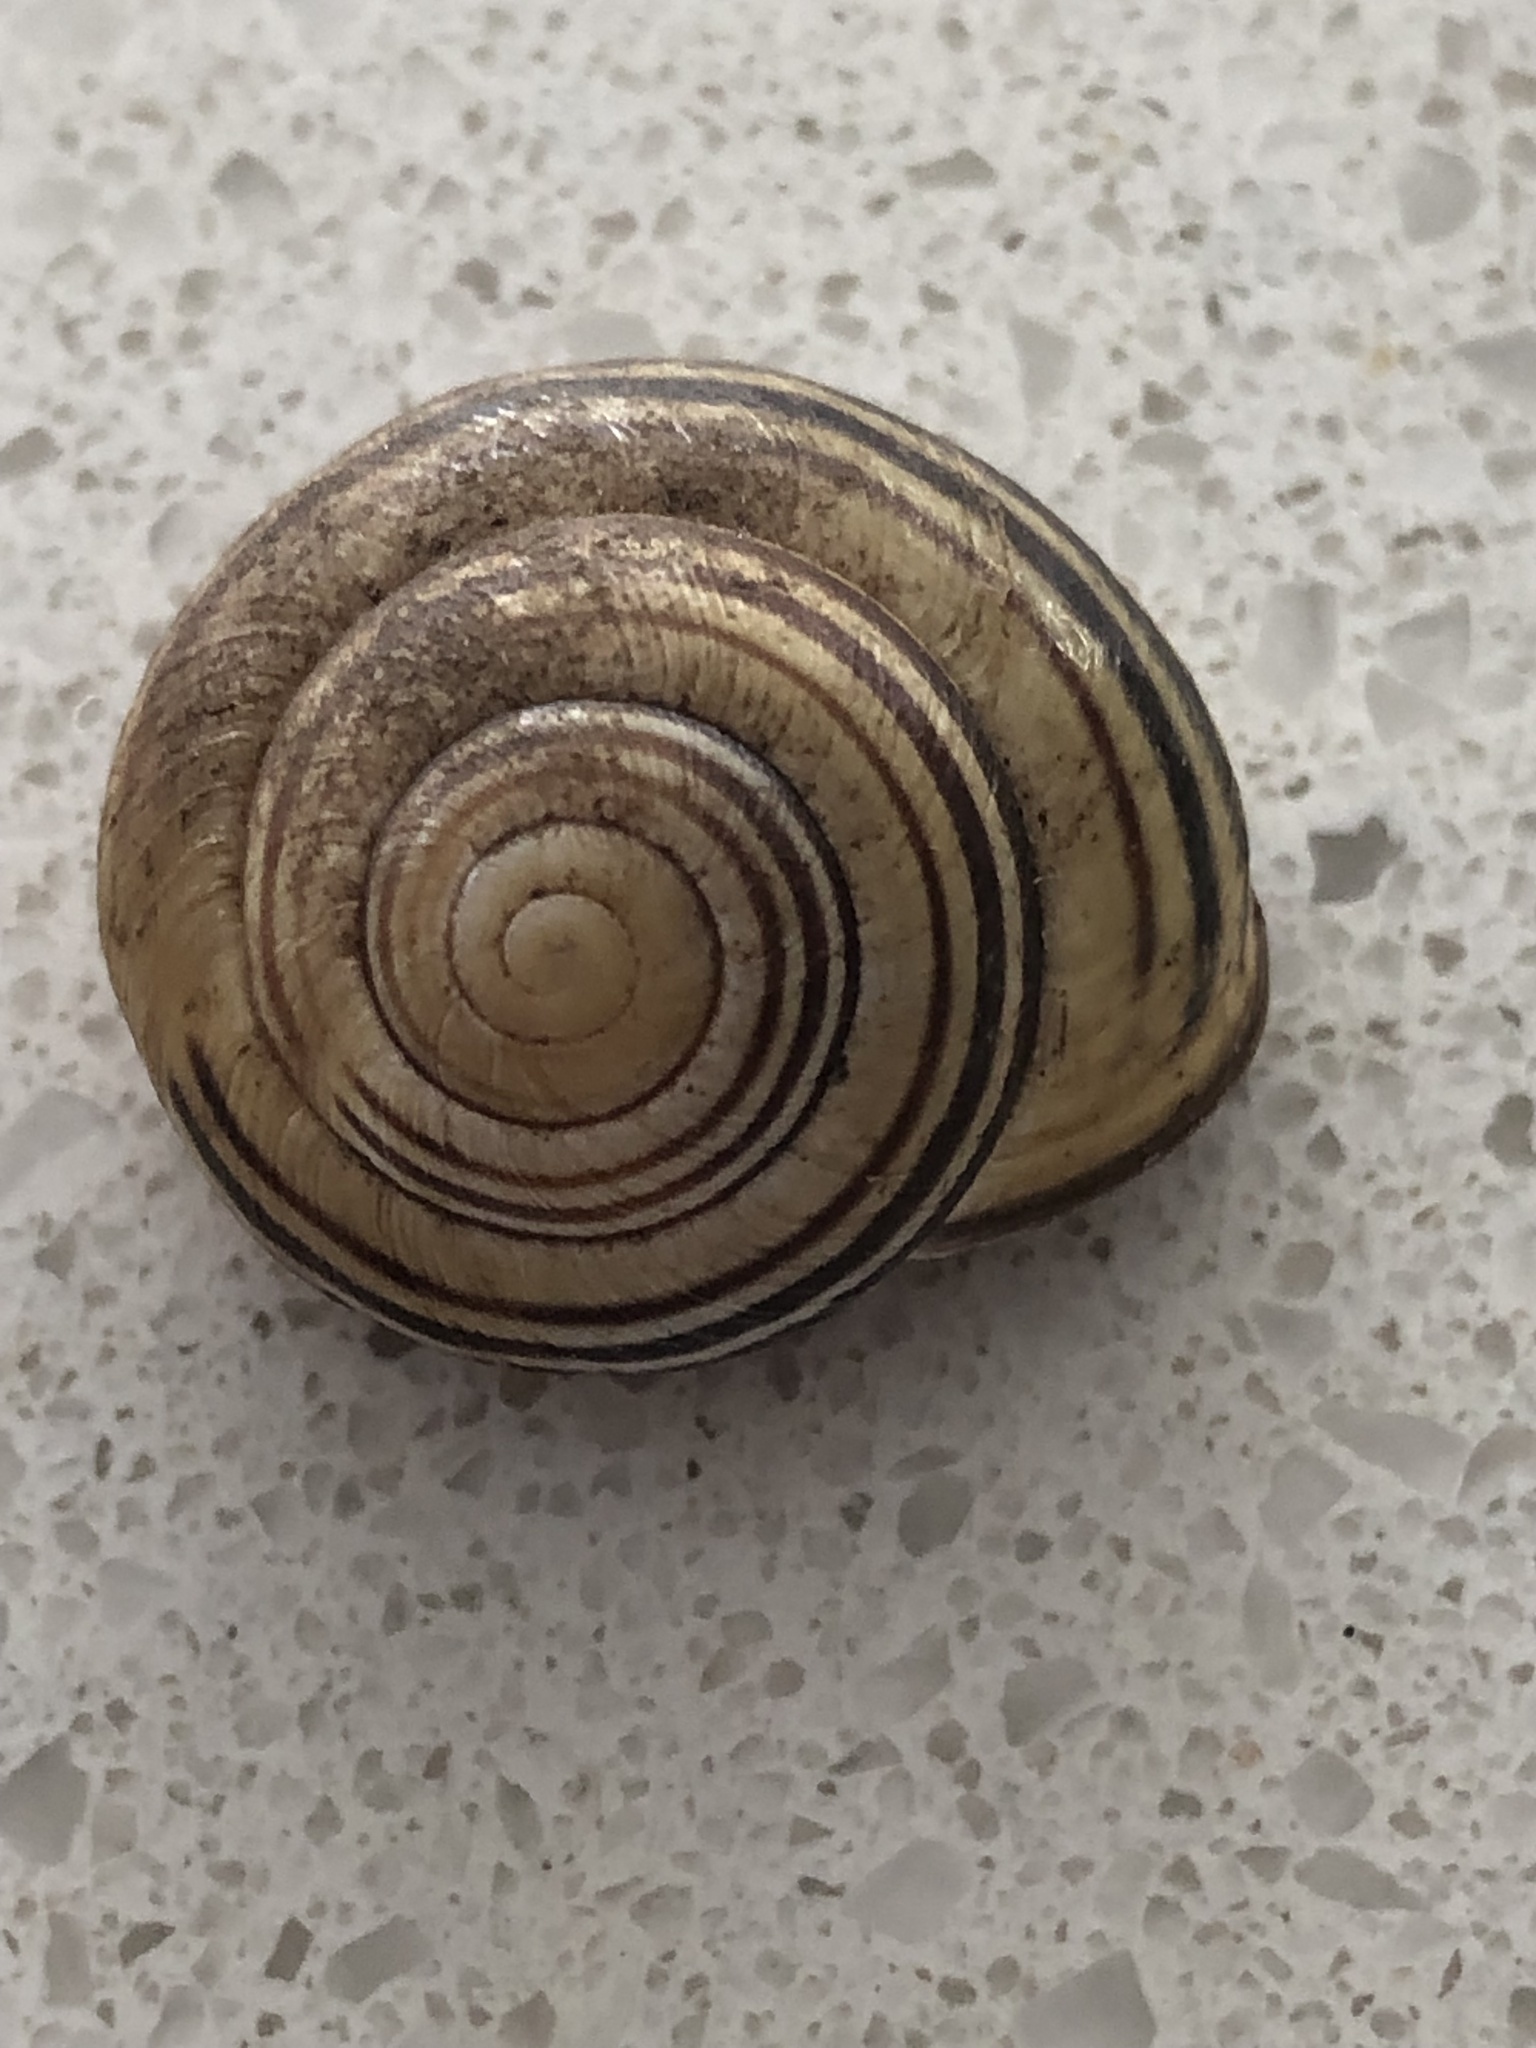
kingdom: Animalia
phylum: Mollusca
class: Gastropoda
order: Stylommatophora
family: Helicidae
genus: Cepaea
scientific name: Cepaea nemoralis
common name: Grovesnail
